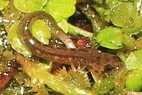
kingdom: Animalia
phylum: Chordata
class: Amphibia
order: Caudata
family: Plethodontidae
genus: Eurycea
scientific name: Eurycea bislineata
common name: Northern two-lined salamander
